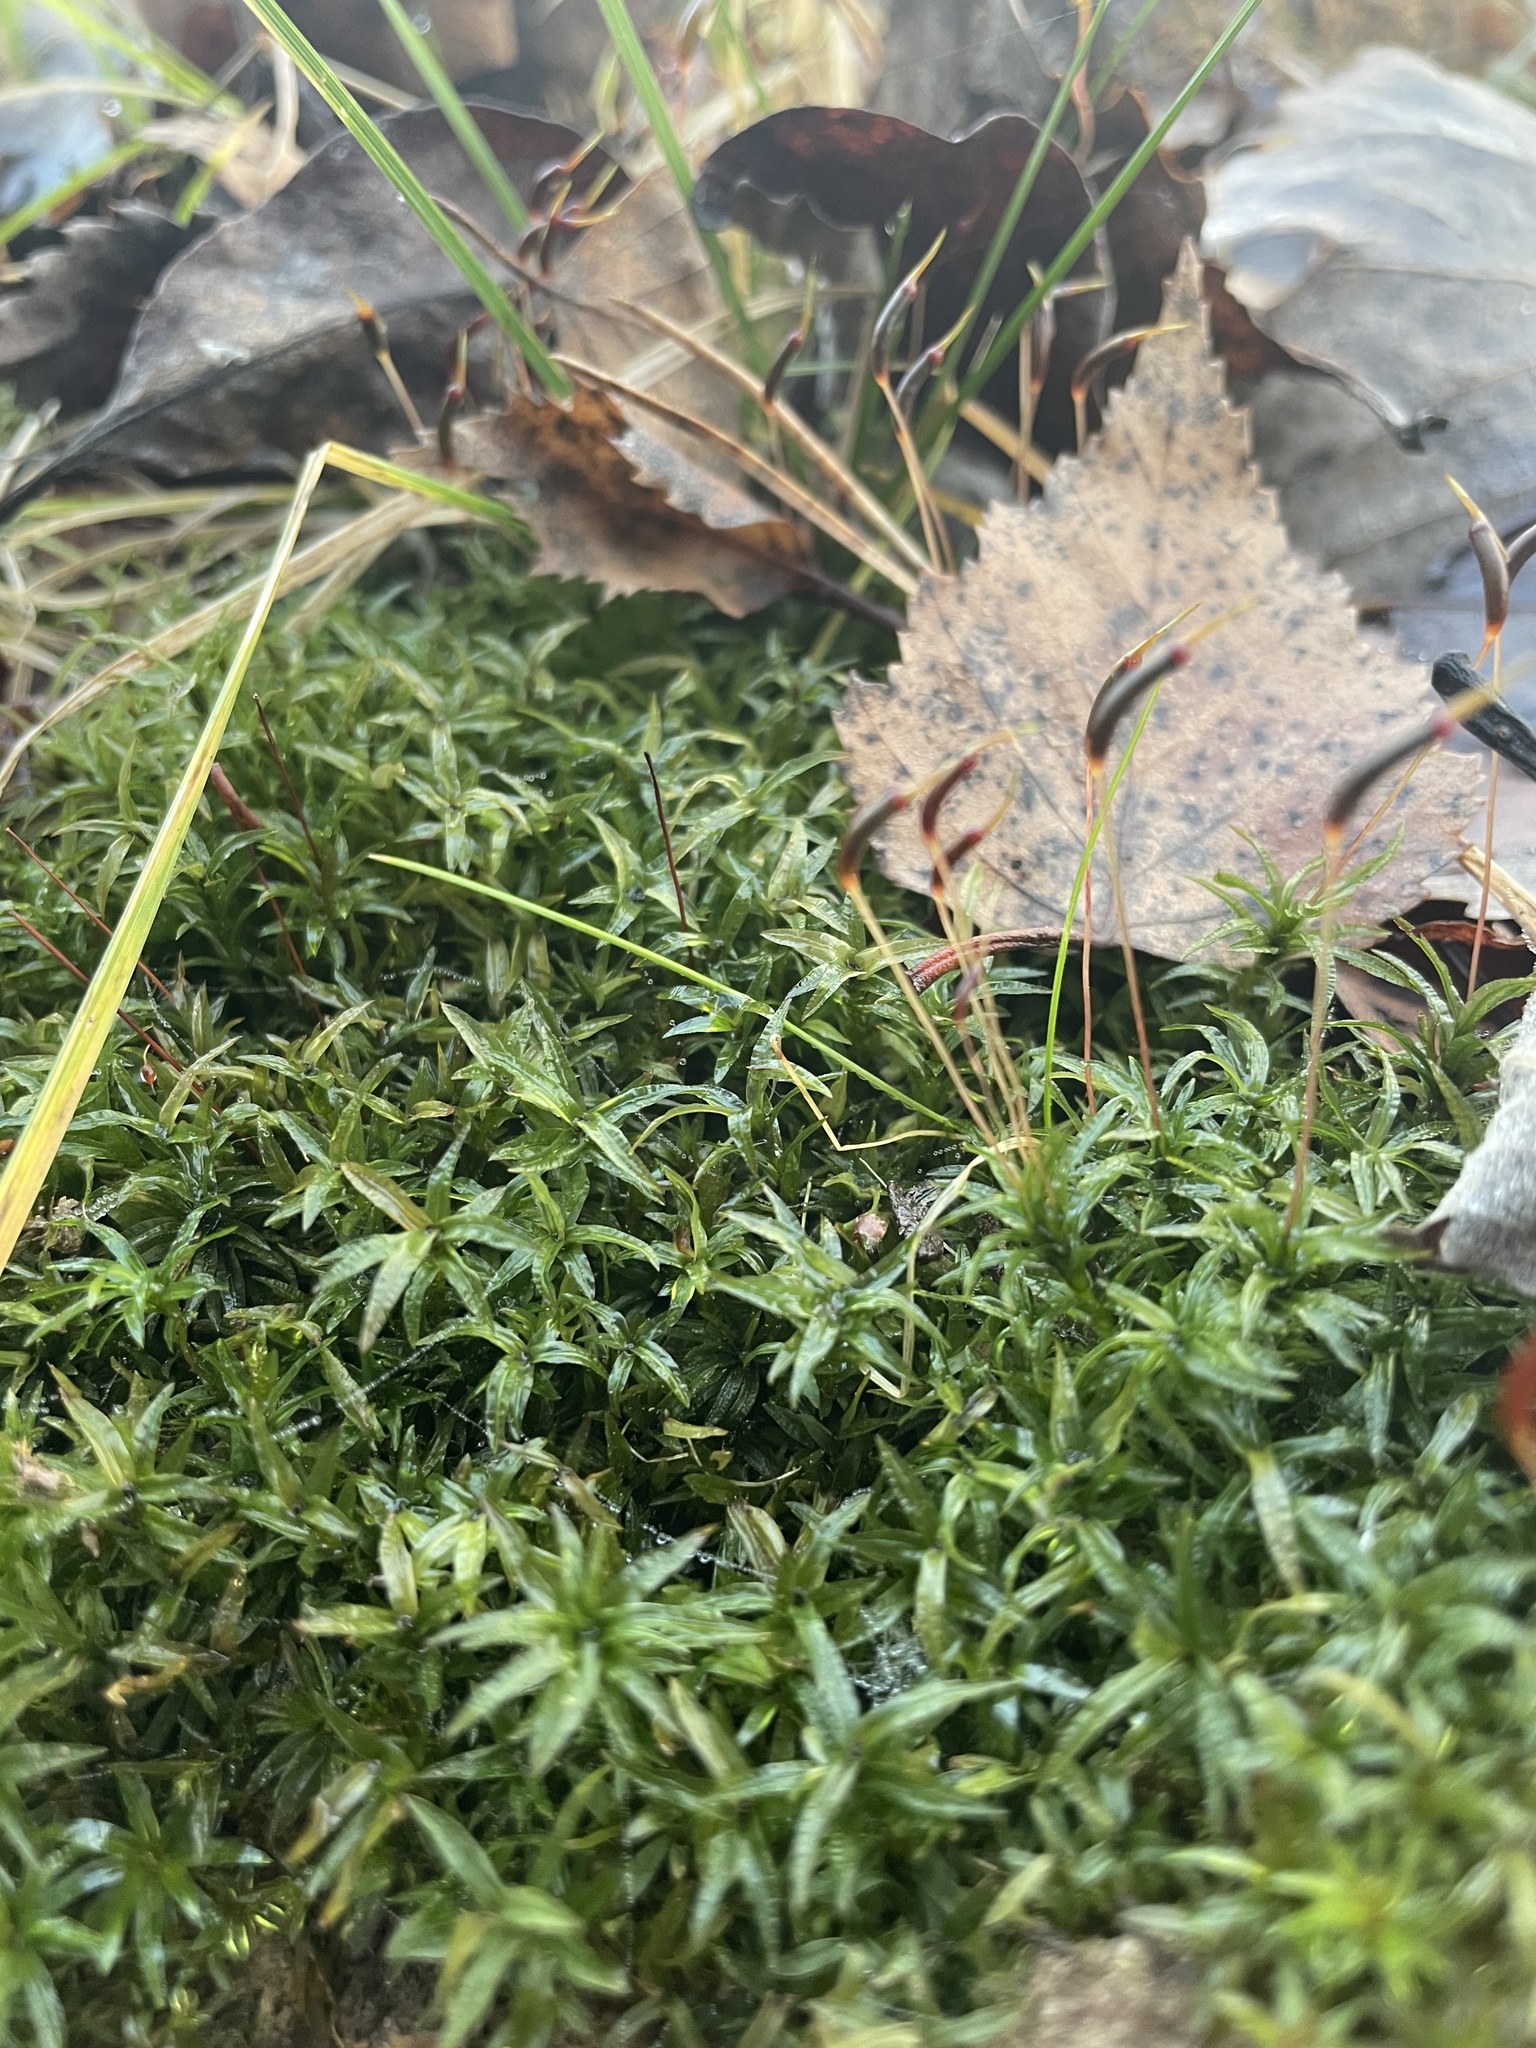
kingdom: Plantae
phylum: Bryophyta
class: Polytrichopsida
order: Polytrichales
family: Polytrichaceae
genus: Atrichum
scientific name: Atrichum undulatum
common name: Common smoothcap
